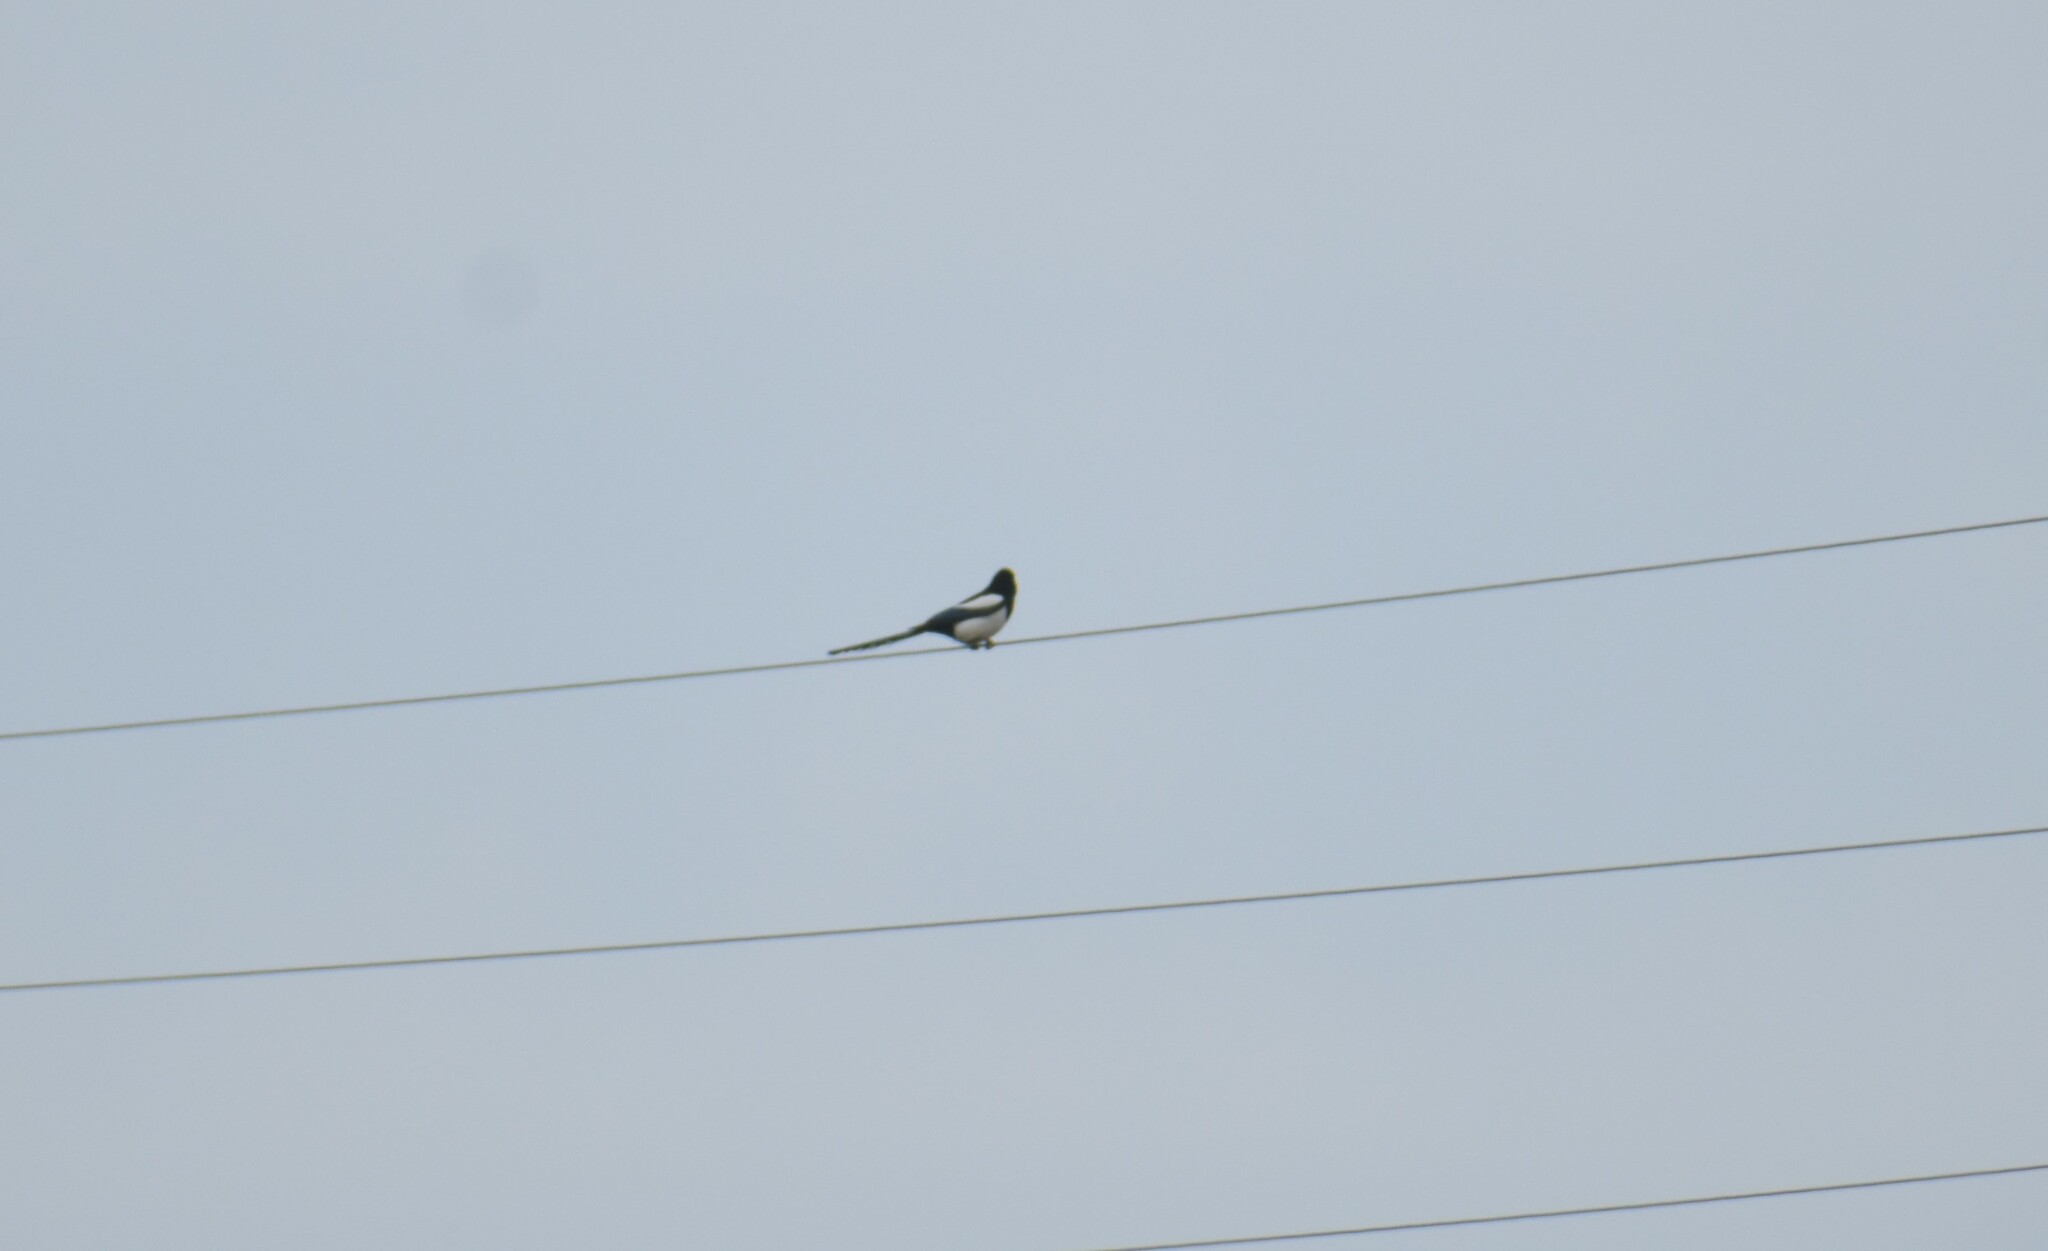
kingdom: Animalia
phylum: Chordata
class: Aves
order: Passeriformes
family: Corvidae
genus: Pica
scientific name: Pica pica
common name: Eurasian magpie
